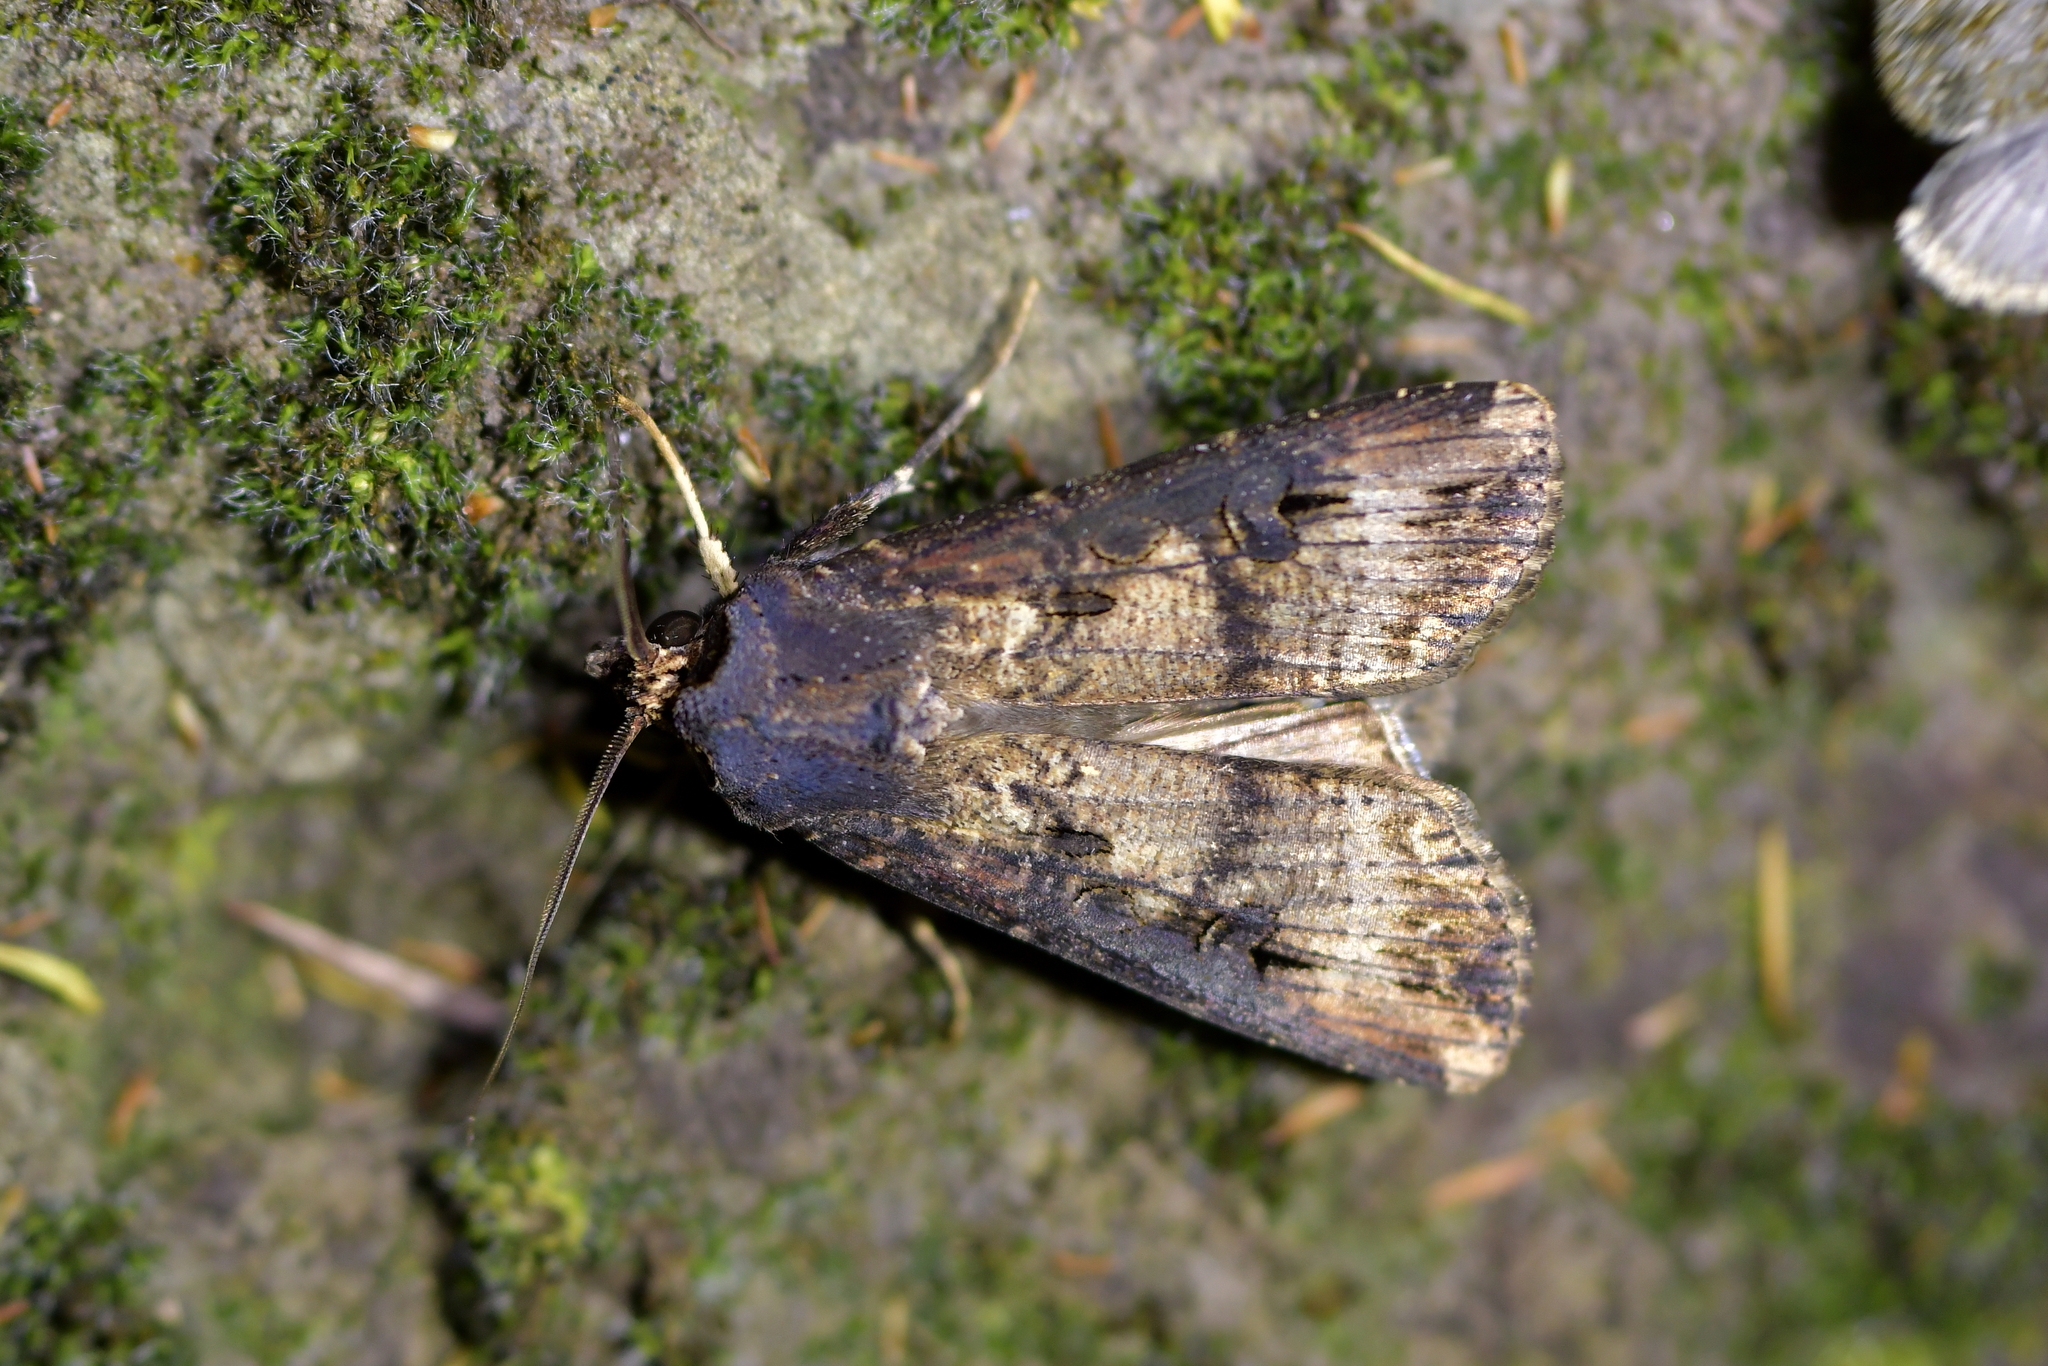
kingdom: Animalia
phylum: Arthropoda
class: Insecta
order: Lepidoptera
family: Noctuidae
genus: Agrotis
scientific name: Agrotis ipsilon
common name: Dark sword-grass
